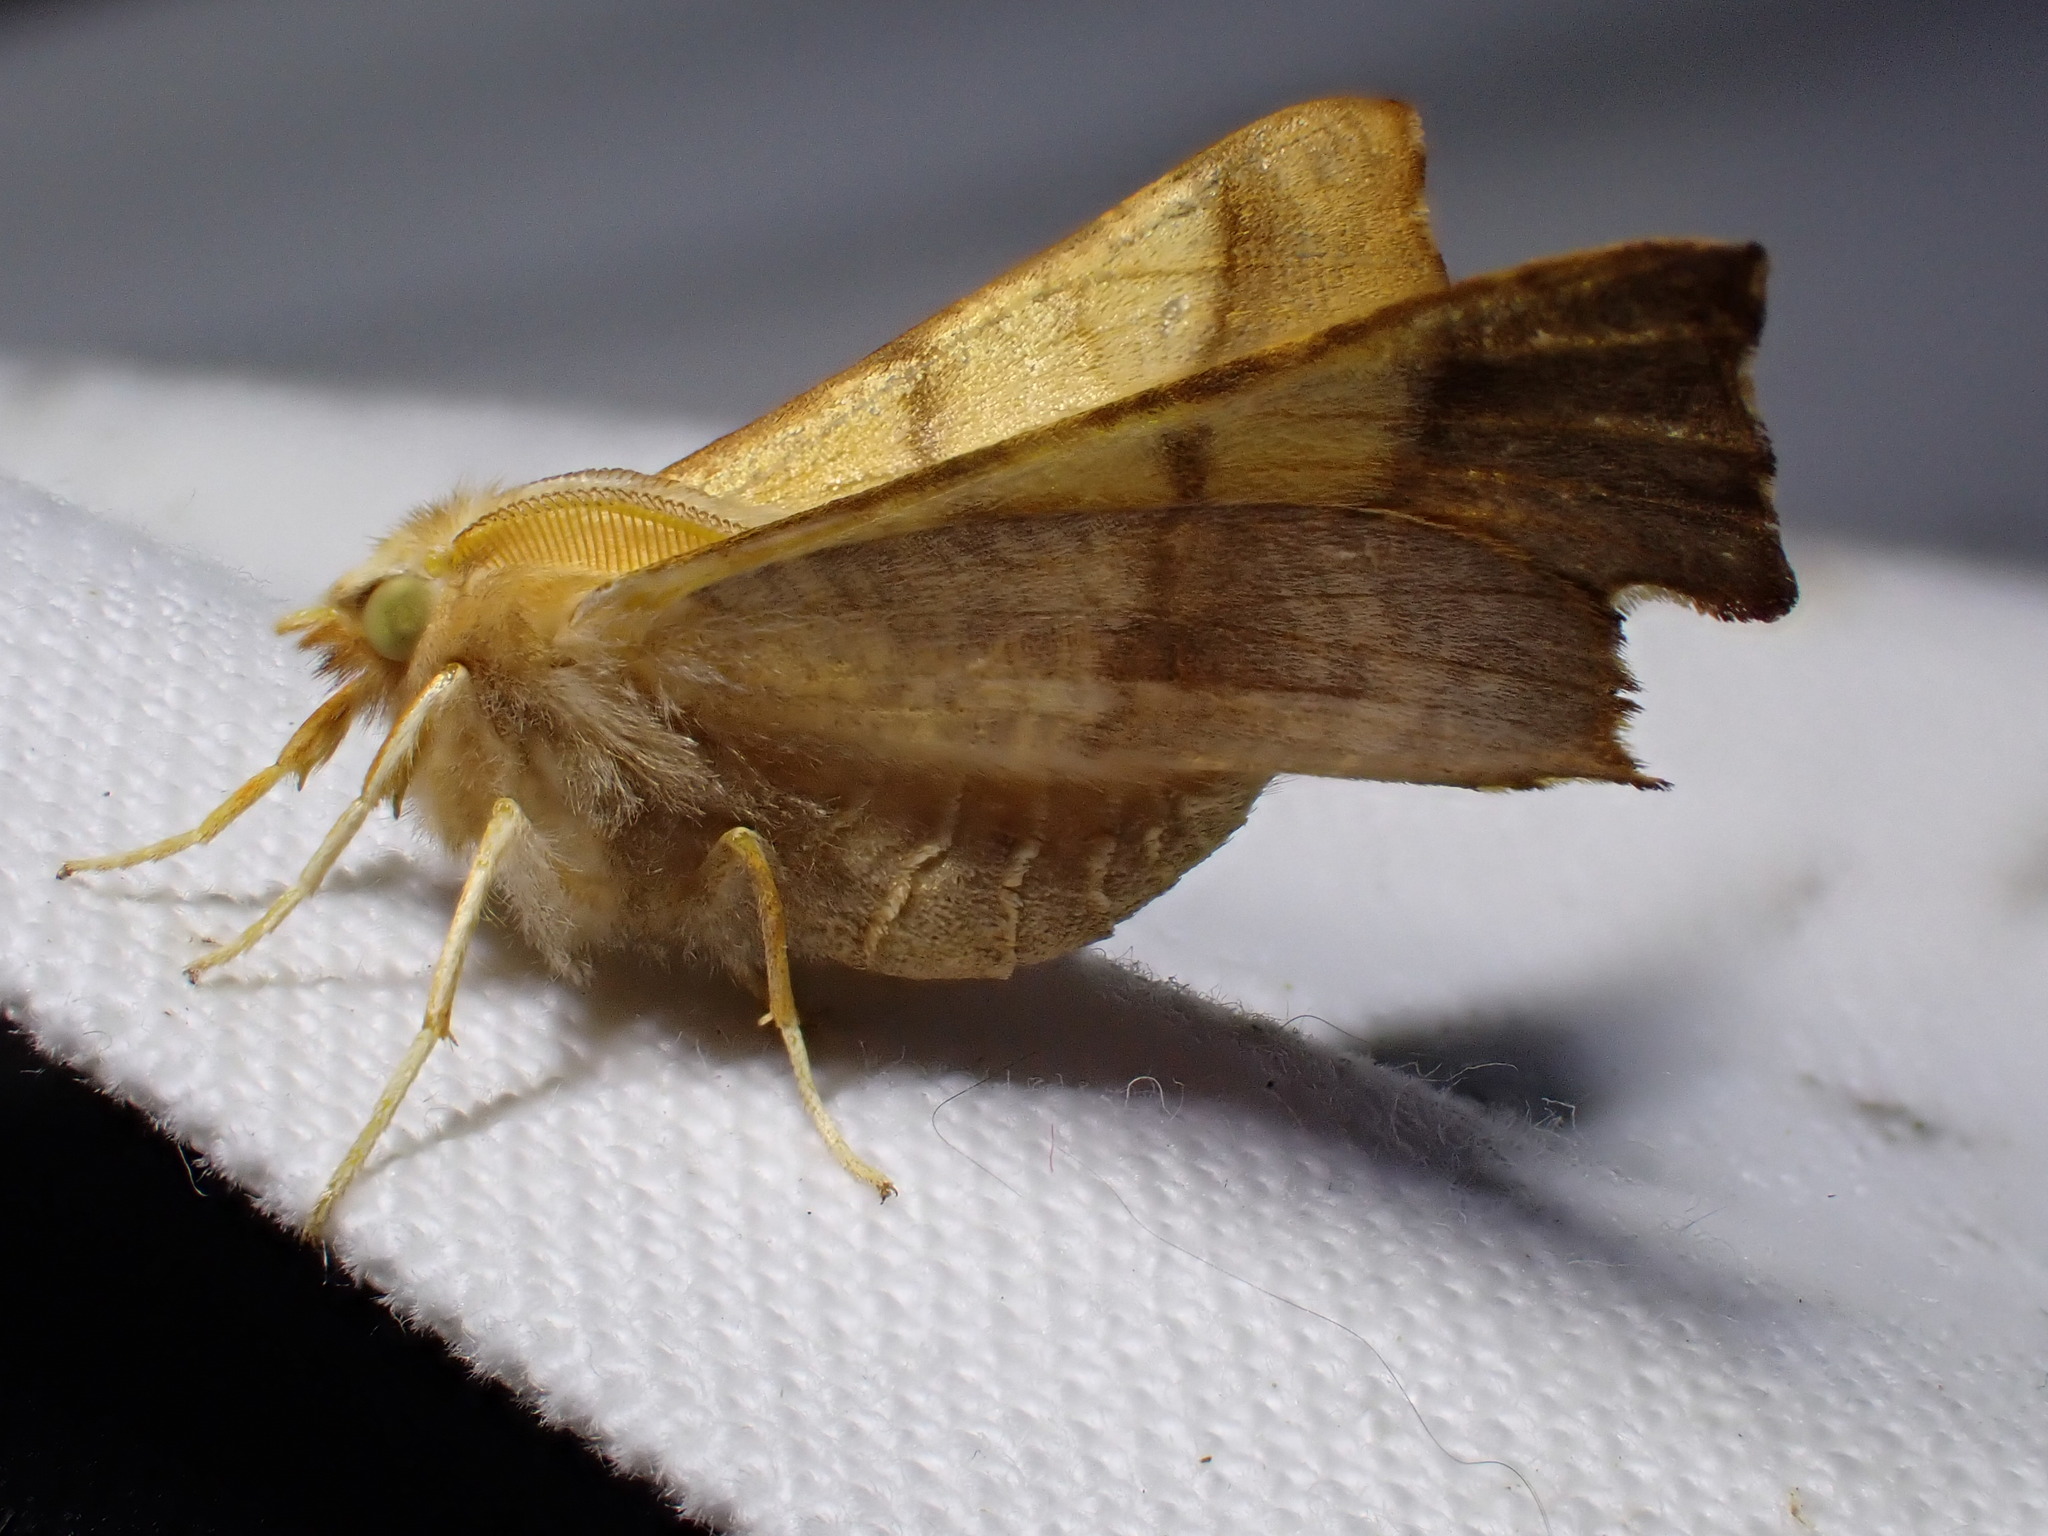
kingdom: Animalia
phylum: Arthropoda
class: Insecta
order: Lepidoptera
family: Geometridae
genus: Ennomos
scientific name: Ennomos fuscantaria
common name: Dusky thorn
